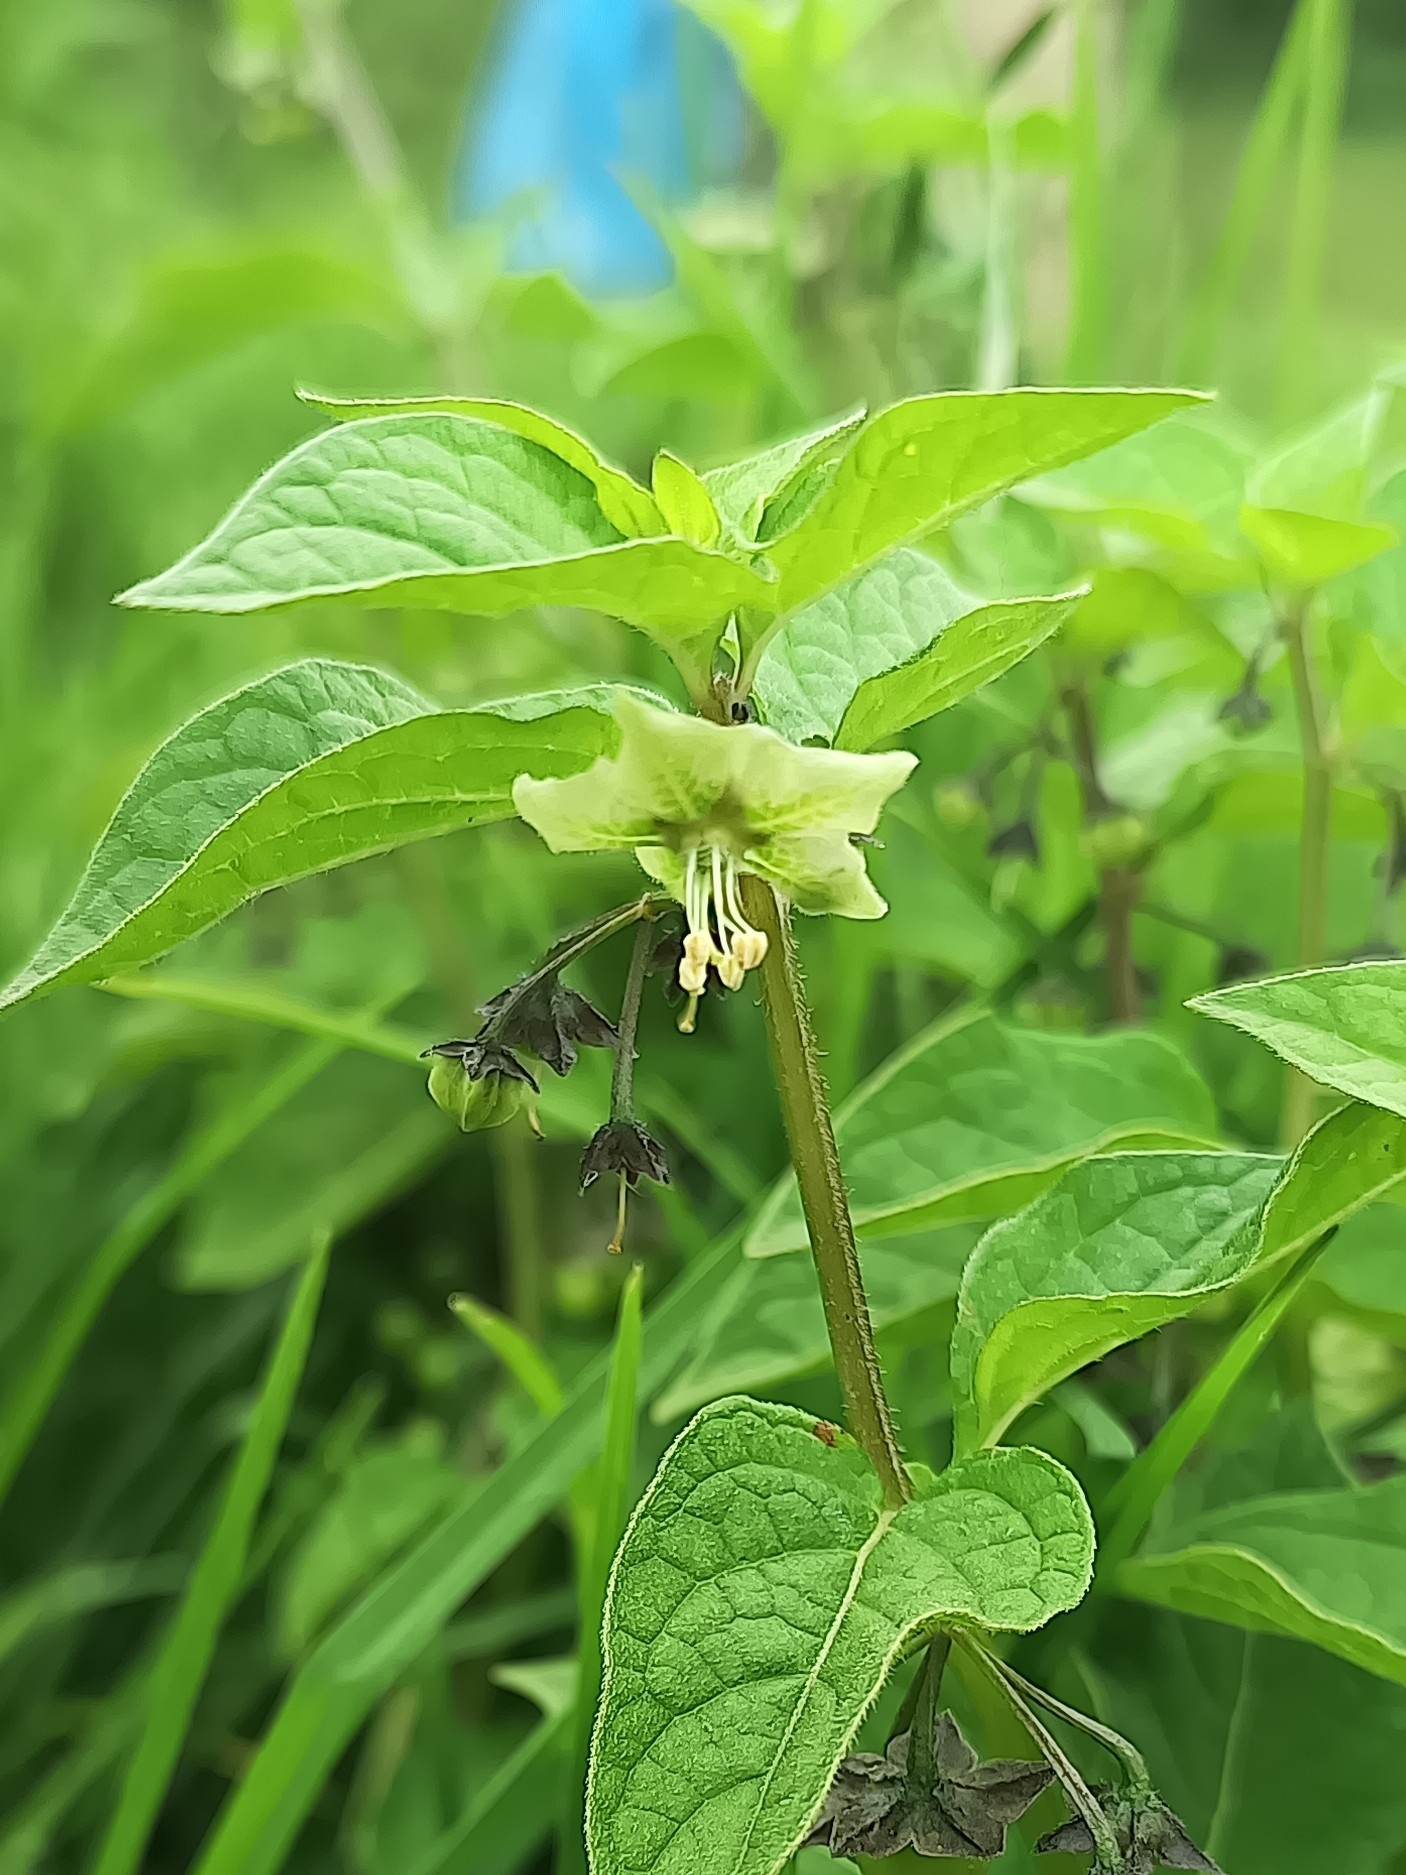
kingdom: Plantae
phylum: Tracheophyta
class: Magnoliopsida
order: Solanales
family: Solanaceae
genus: Jaltomata
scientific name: Jaltomata procumbens
